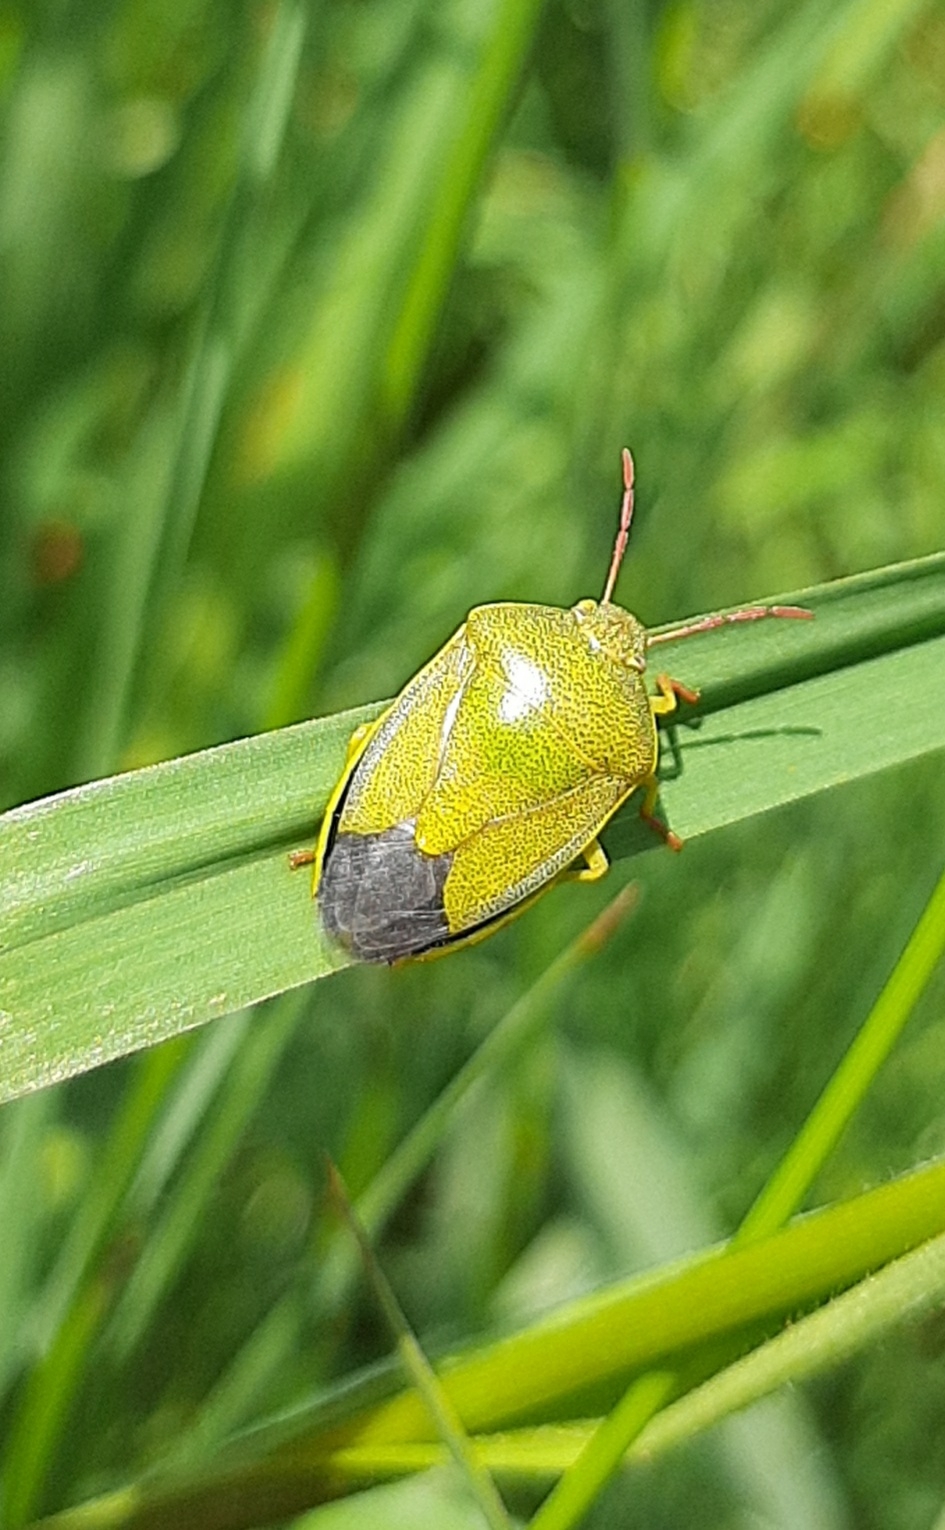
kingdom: Animalia
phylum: Arthropoda
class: Insecta
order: Hemiptera
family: Pentatomidae
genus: Piezodorus
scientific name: Piezodorus lituratus
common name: Stink bug
